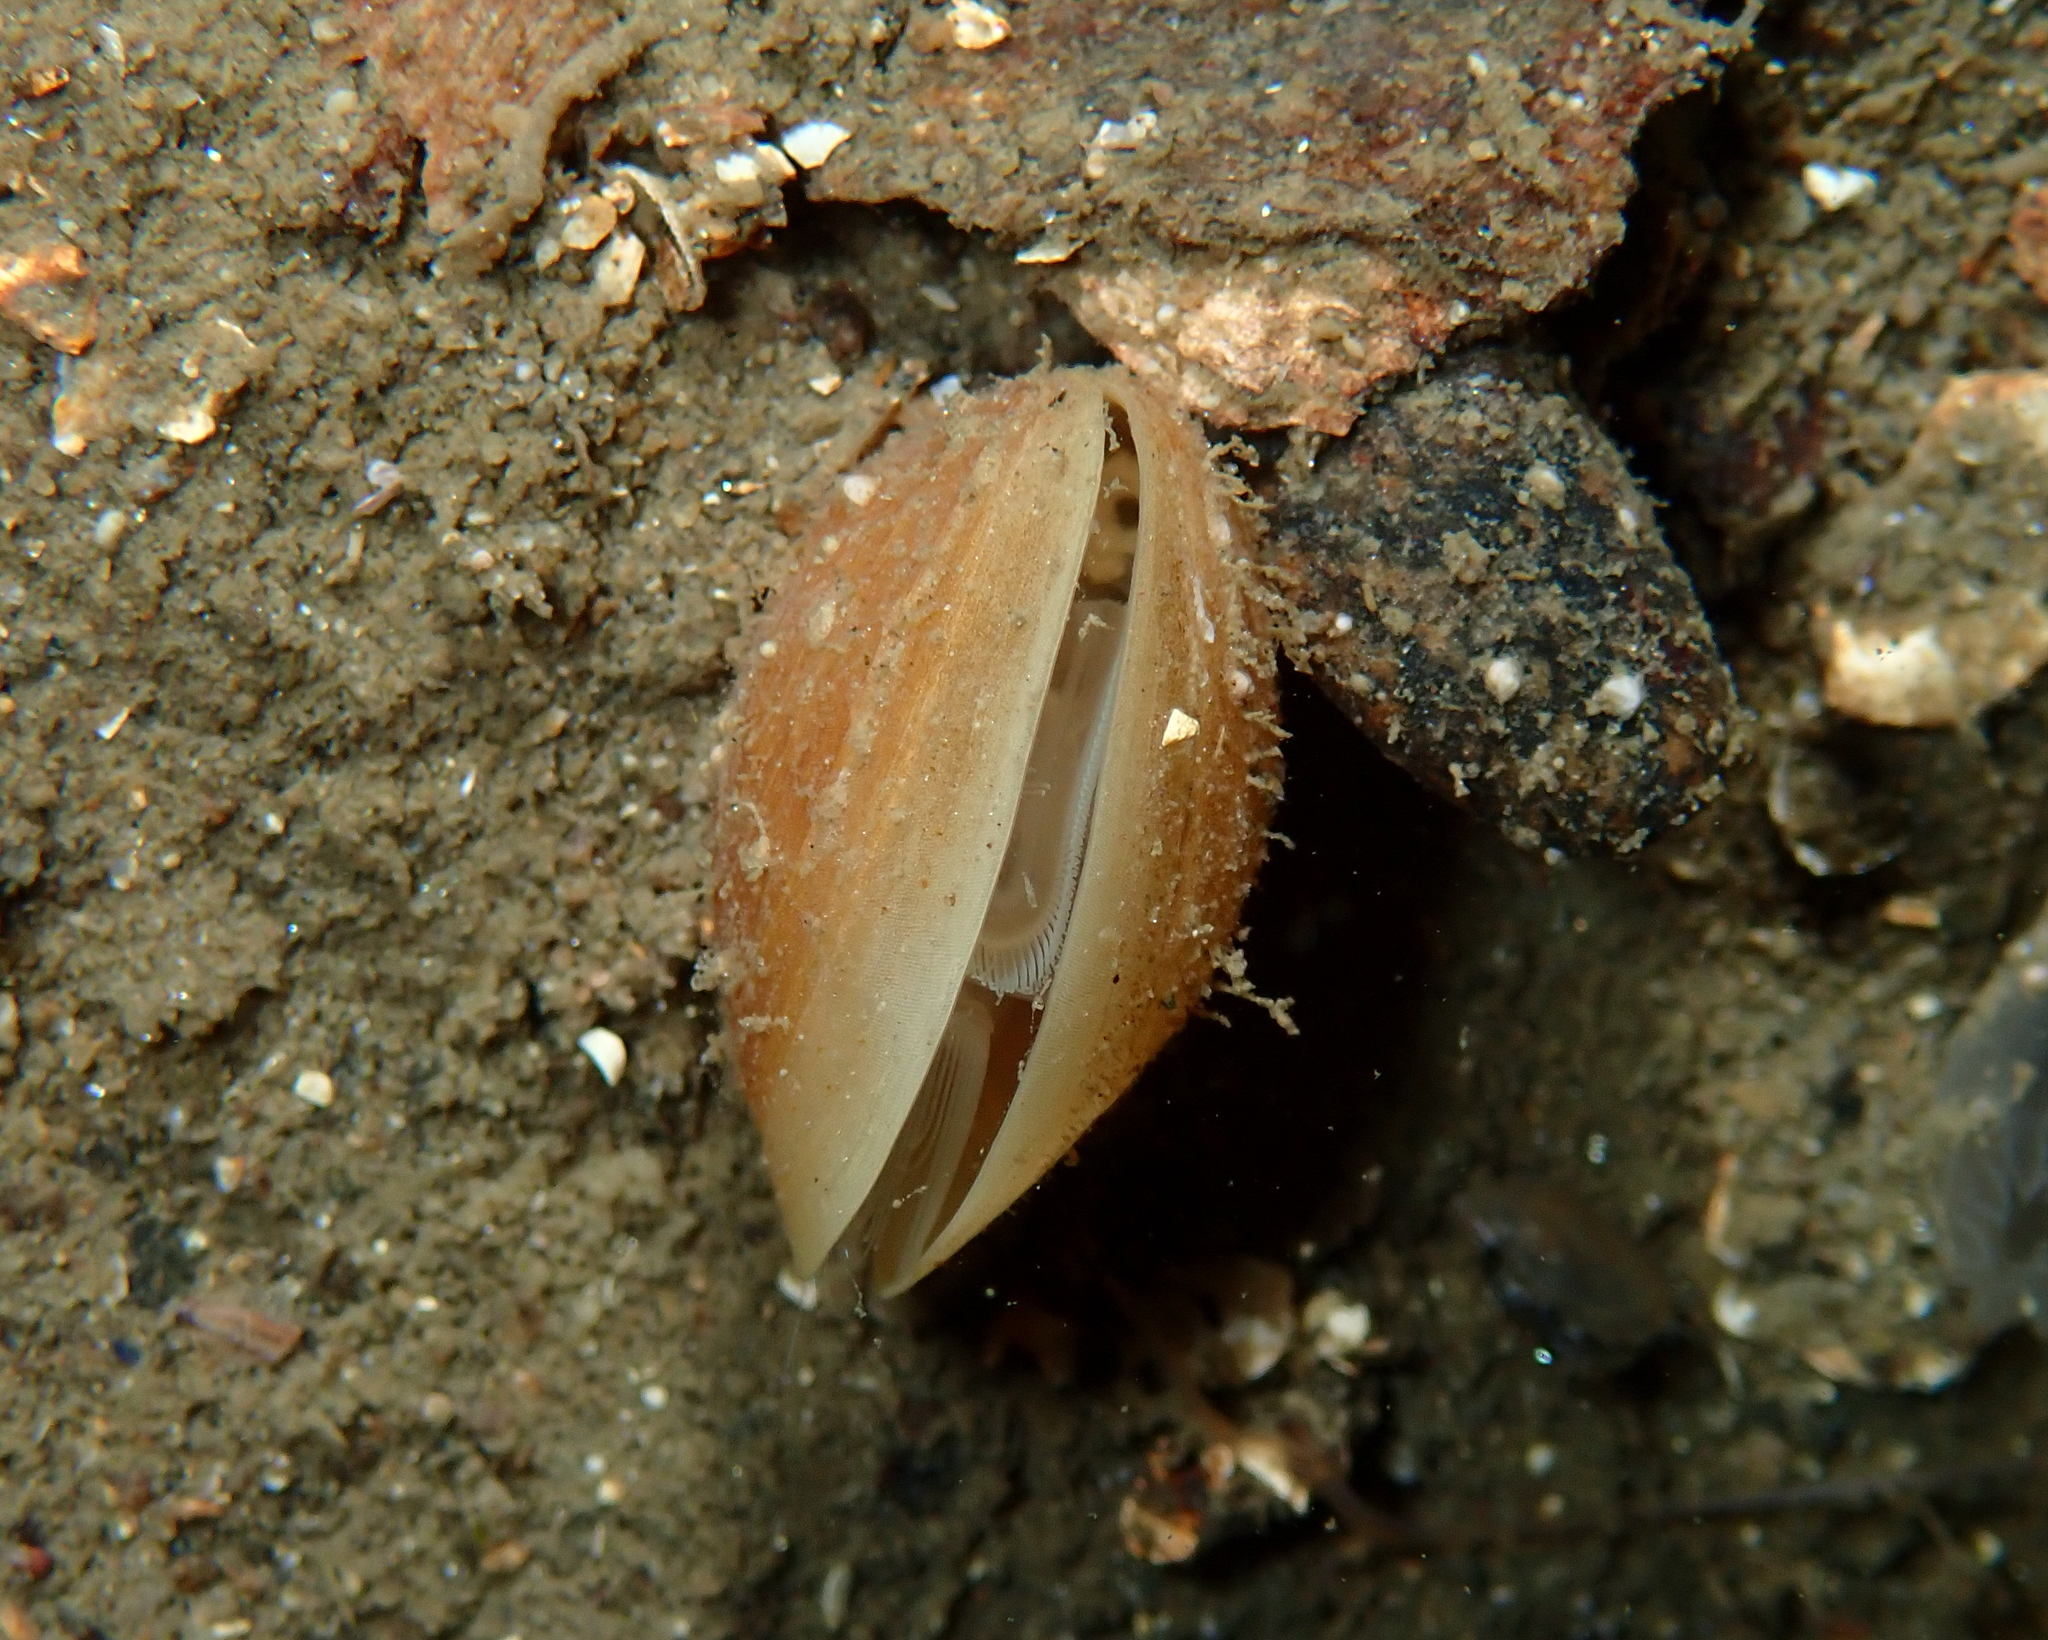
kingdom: Animalia
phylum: Brachiopoda
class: Rhynchonellata
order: Terebratulida
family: Zeilleriidae
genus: Macandrevia
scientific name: Macandrevia cranium
